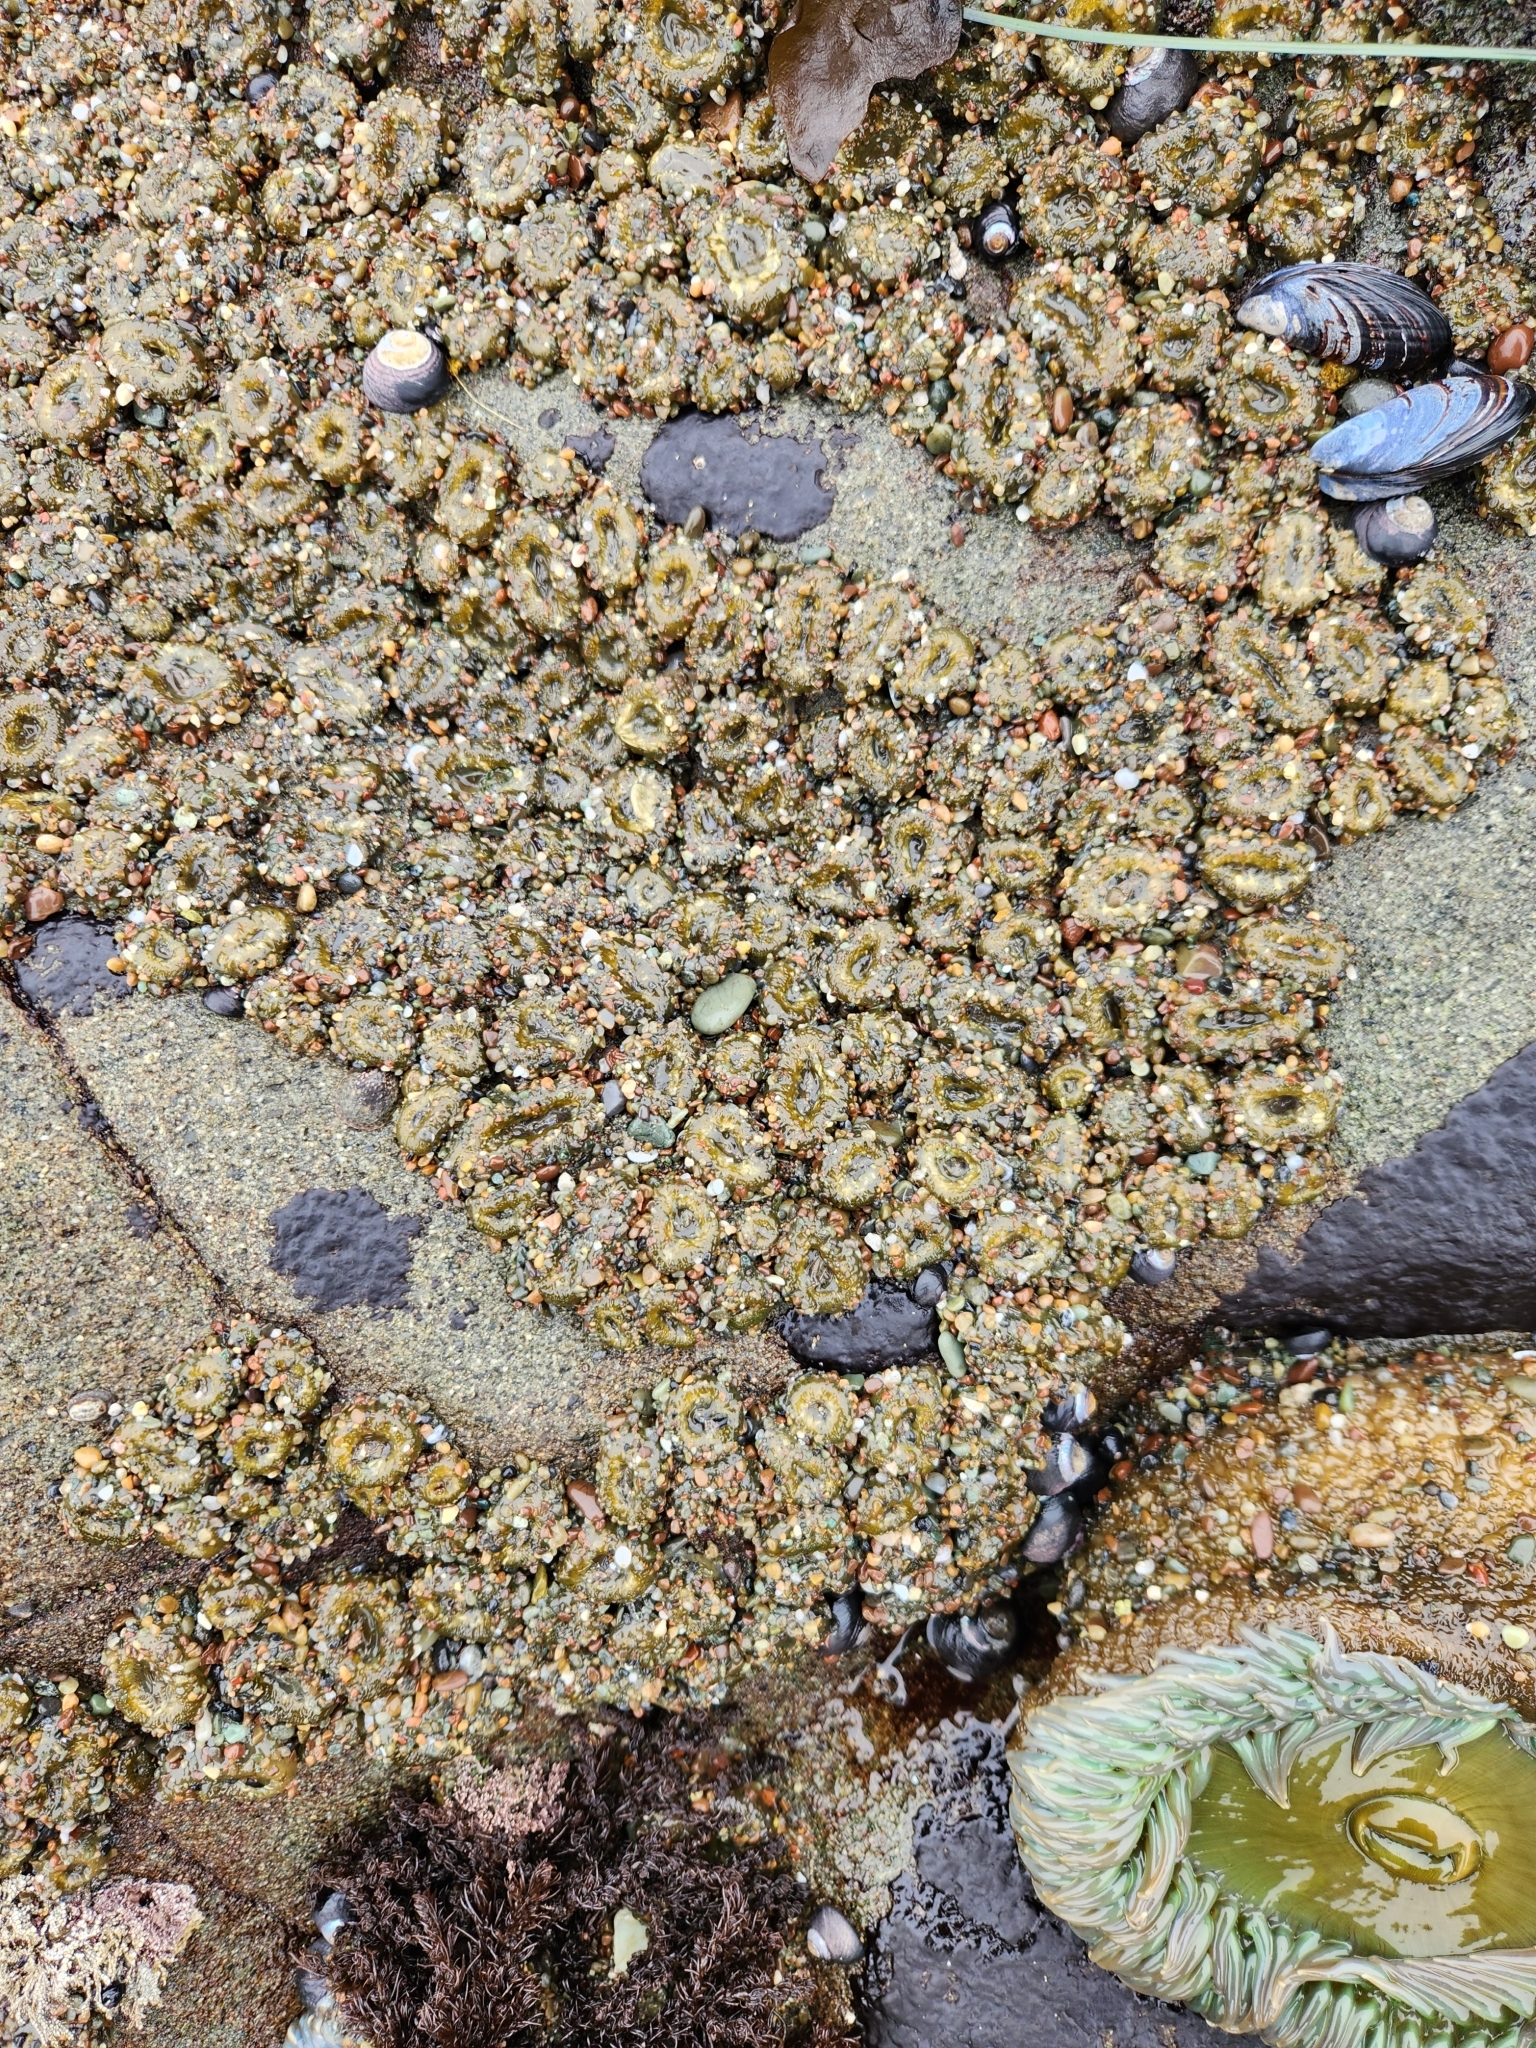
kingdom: Animalia
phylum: Cnidaria
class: Anthozoa
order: Actiniaria
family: Actiniidae
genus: Anthopleura
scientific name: Anthopleura elegantissima
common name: Clonal anemone
